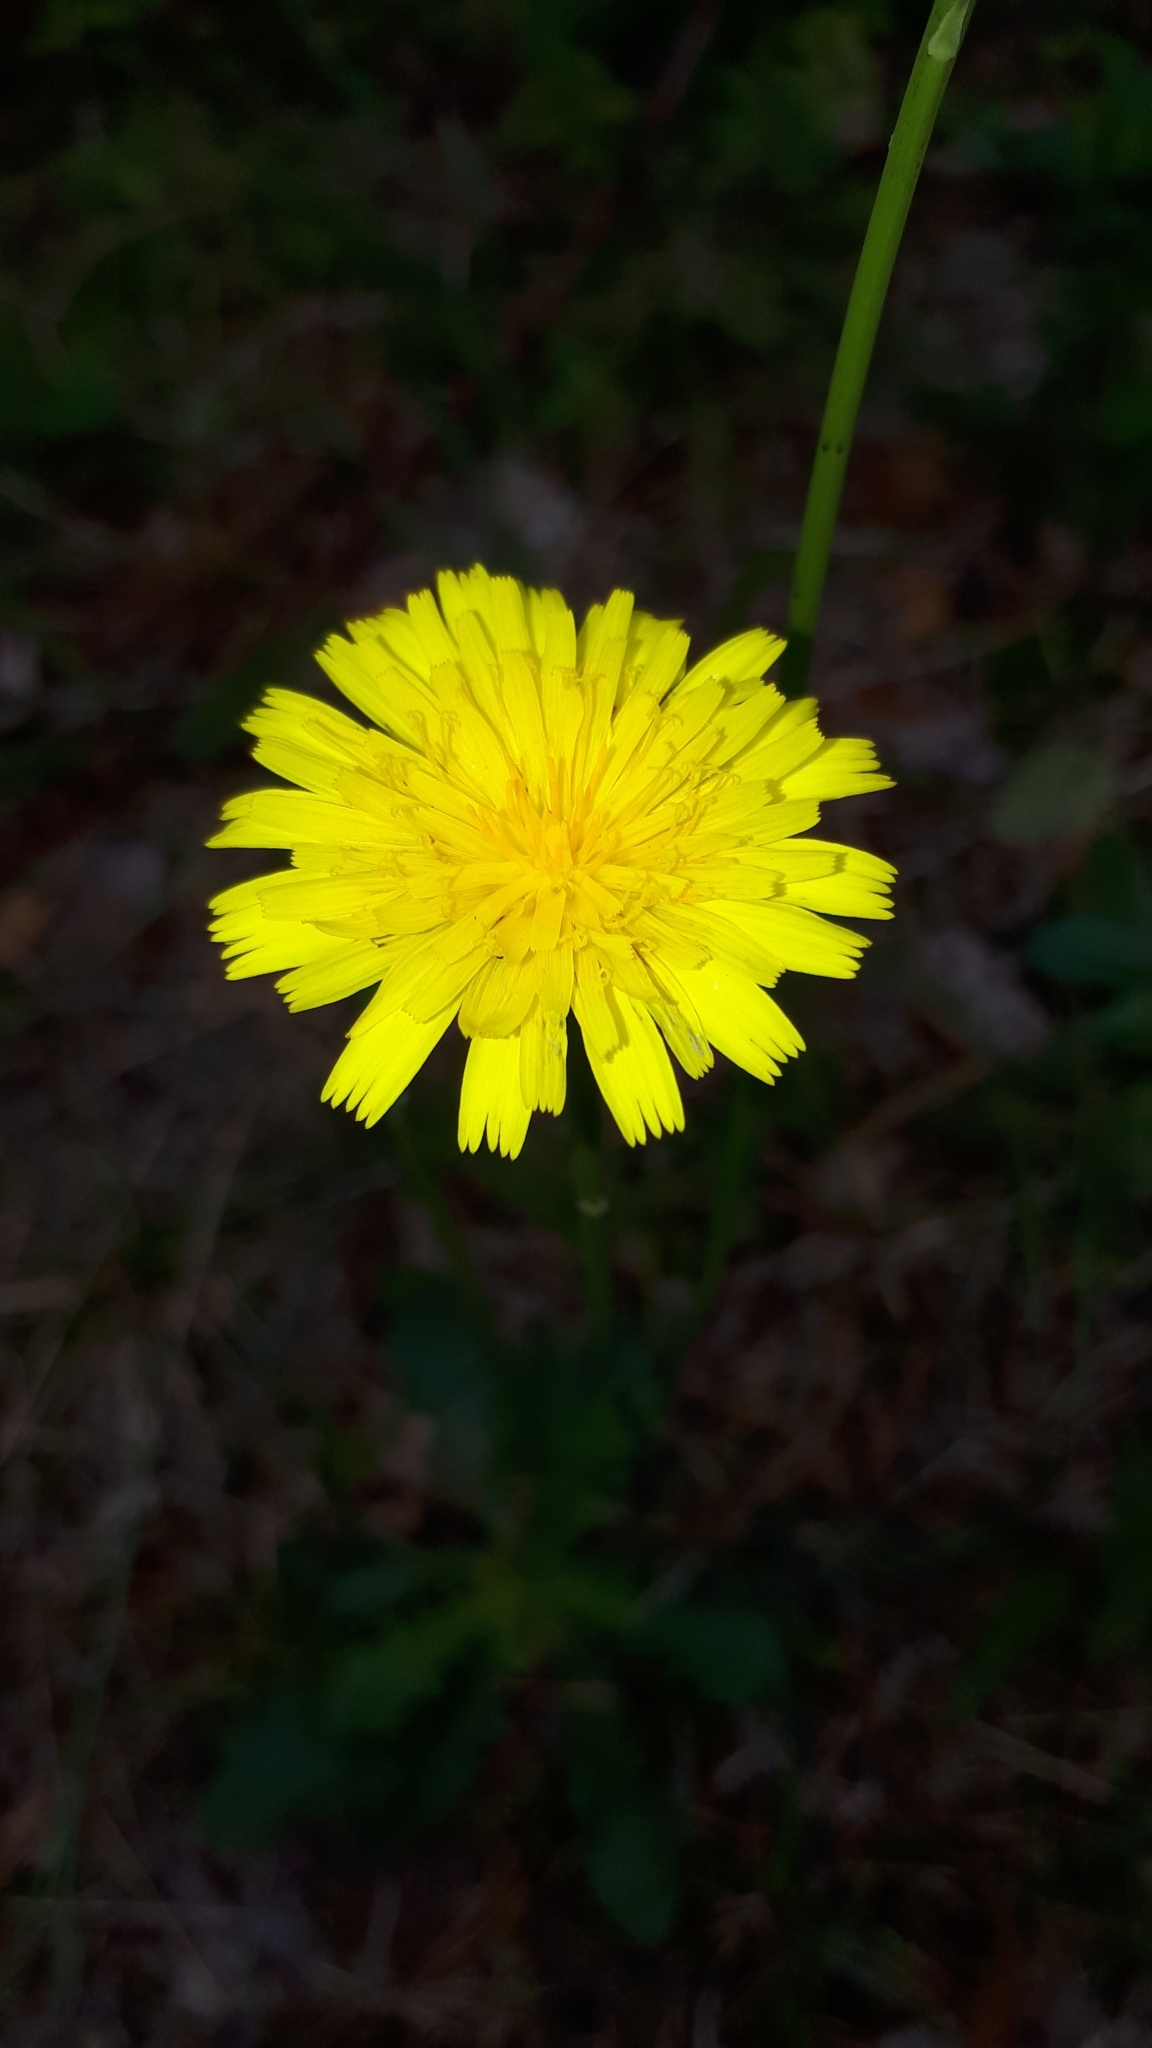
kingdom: Plantae
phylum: Tracheophyta
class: Magnoliopsida
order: Asterales
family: Asteraceae
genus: Hypochaeris
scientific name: Hypochaeris radicata
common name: Flatweed
